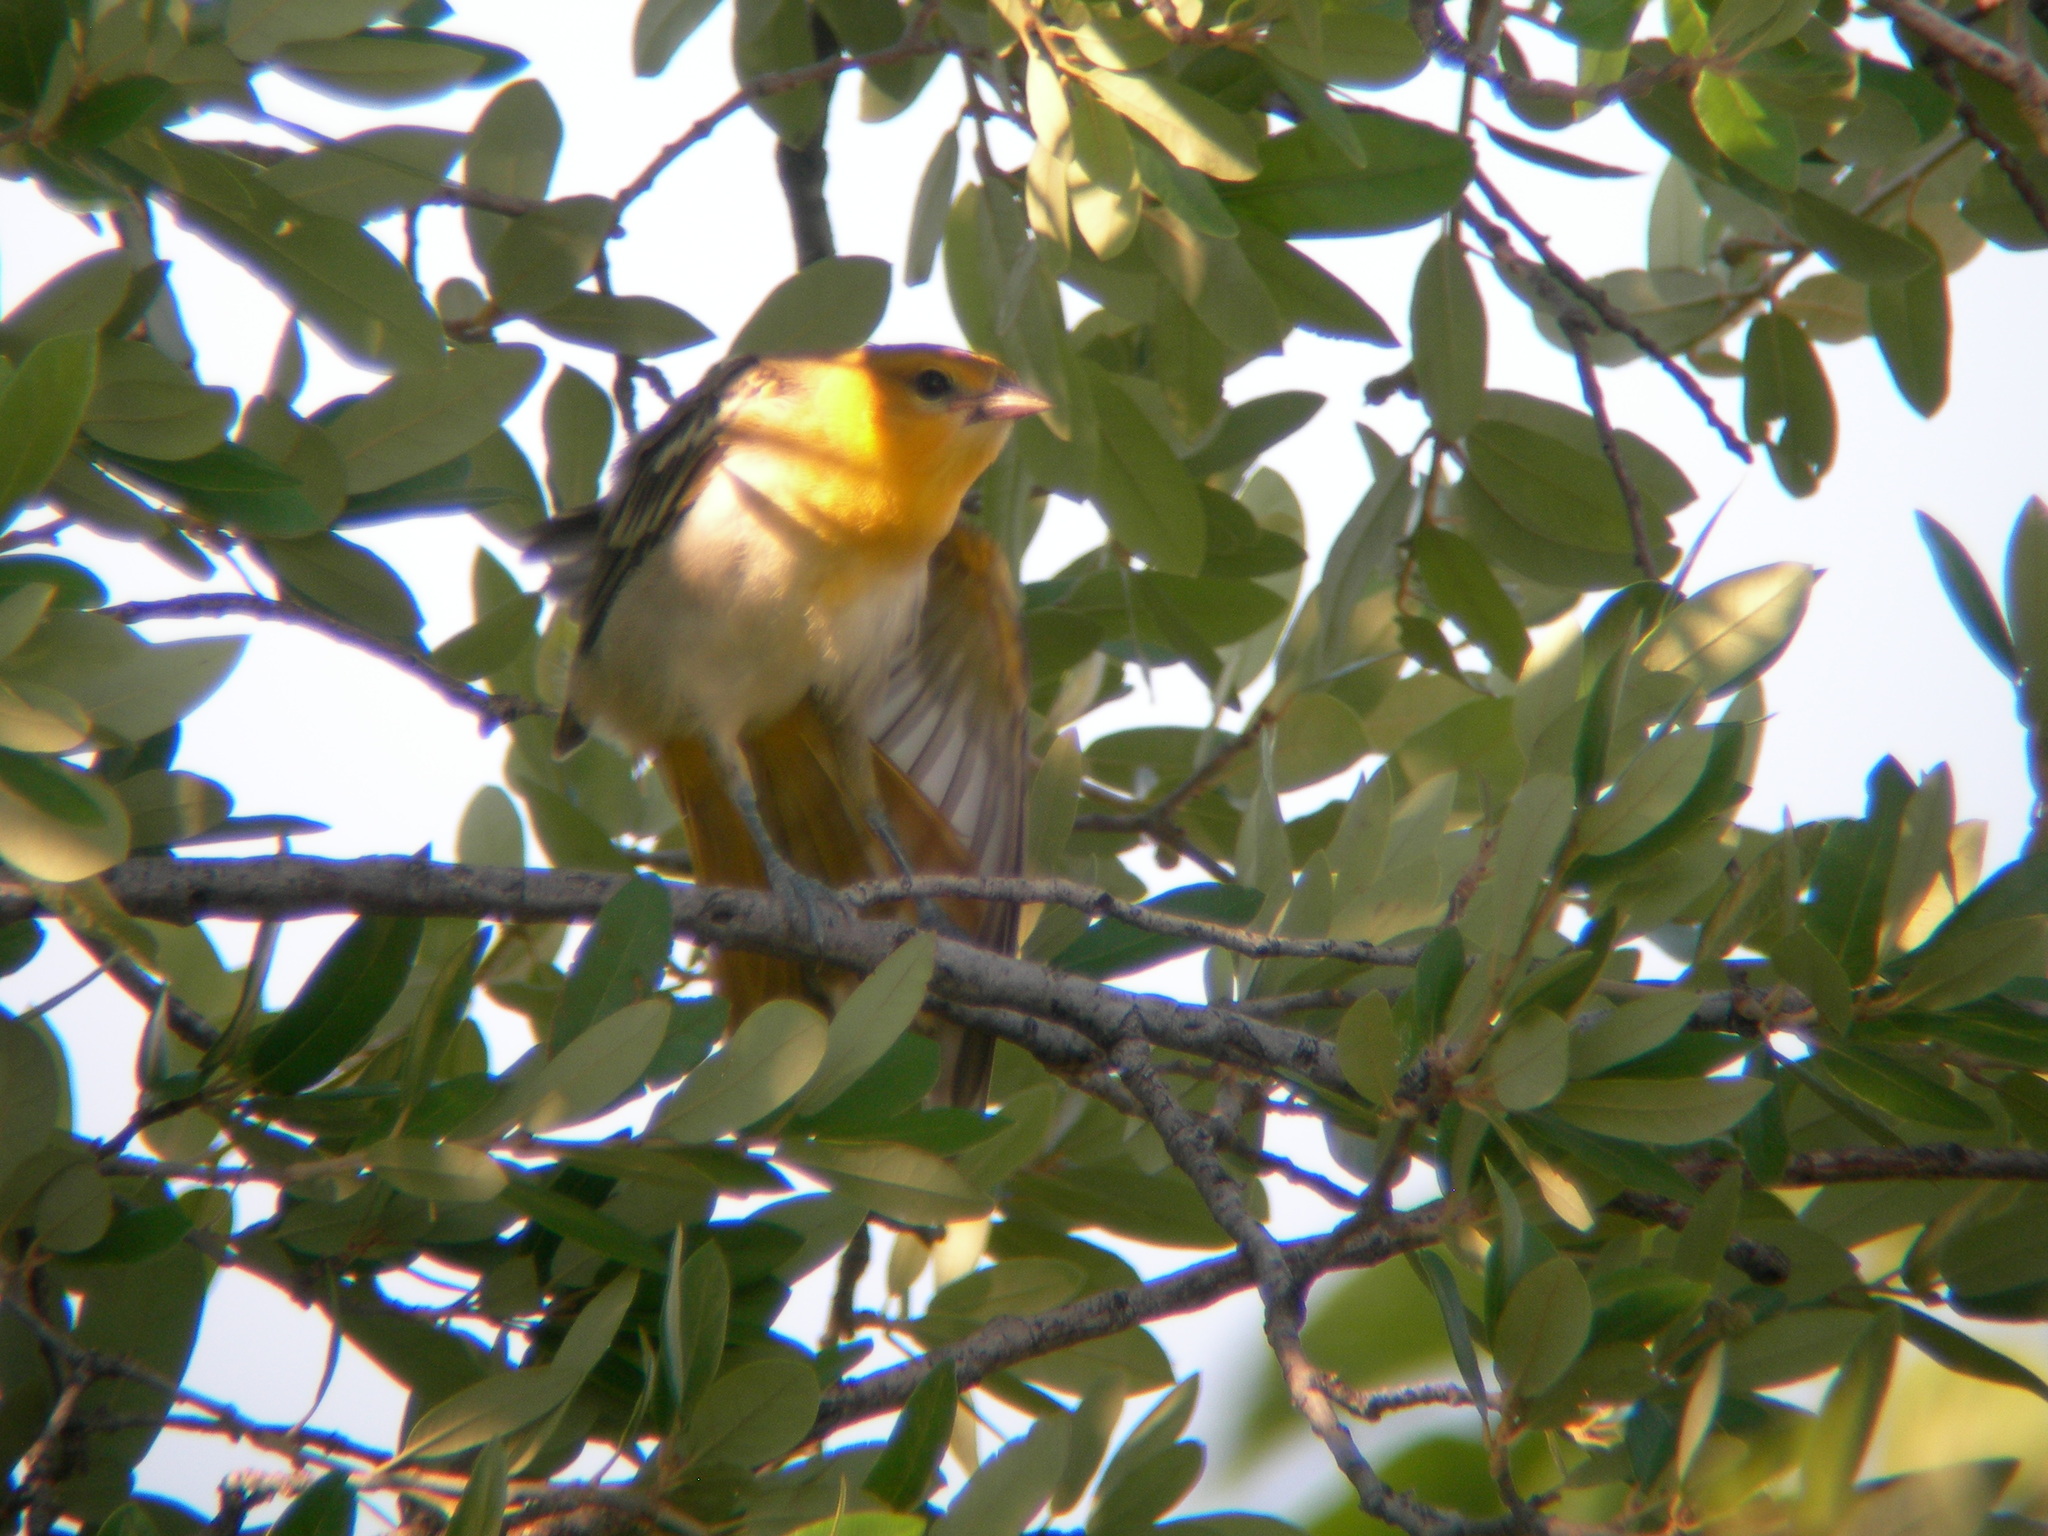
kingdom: Animalia
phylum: Chordata
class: Aves
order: Passeriformes
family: Icteridae
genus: Icterus
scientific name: Icterus bullockii
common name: Bullock's oriole
